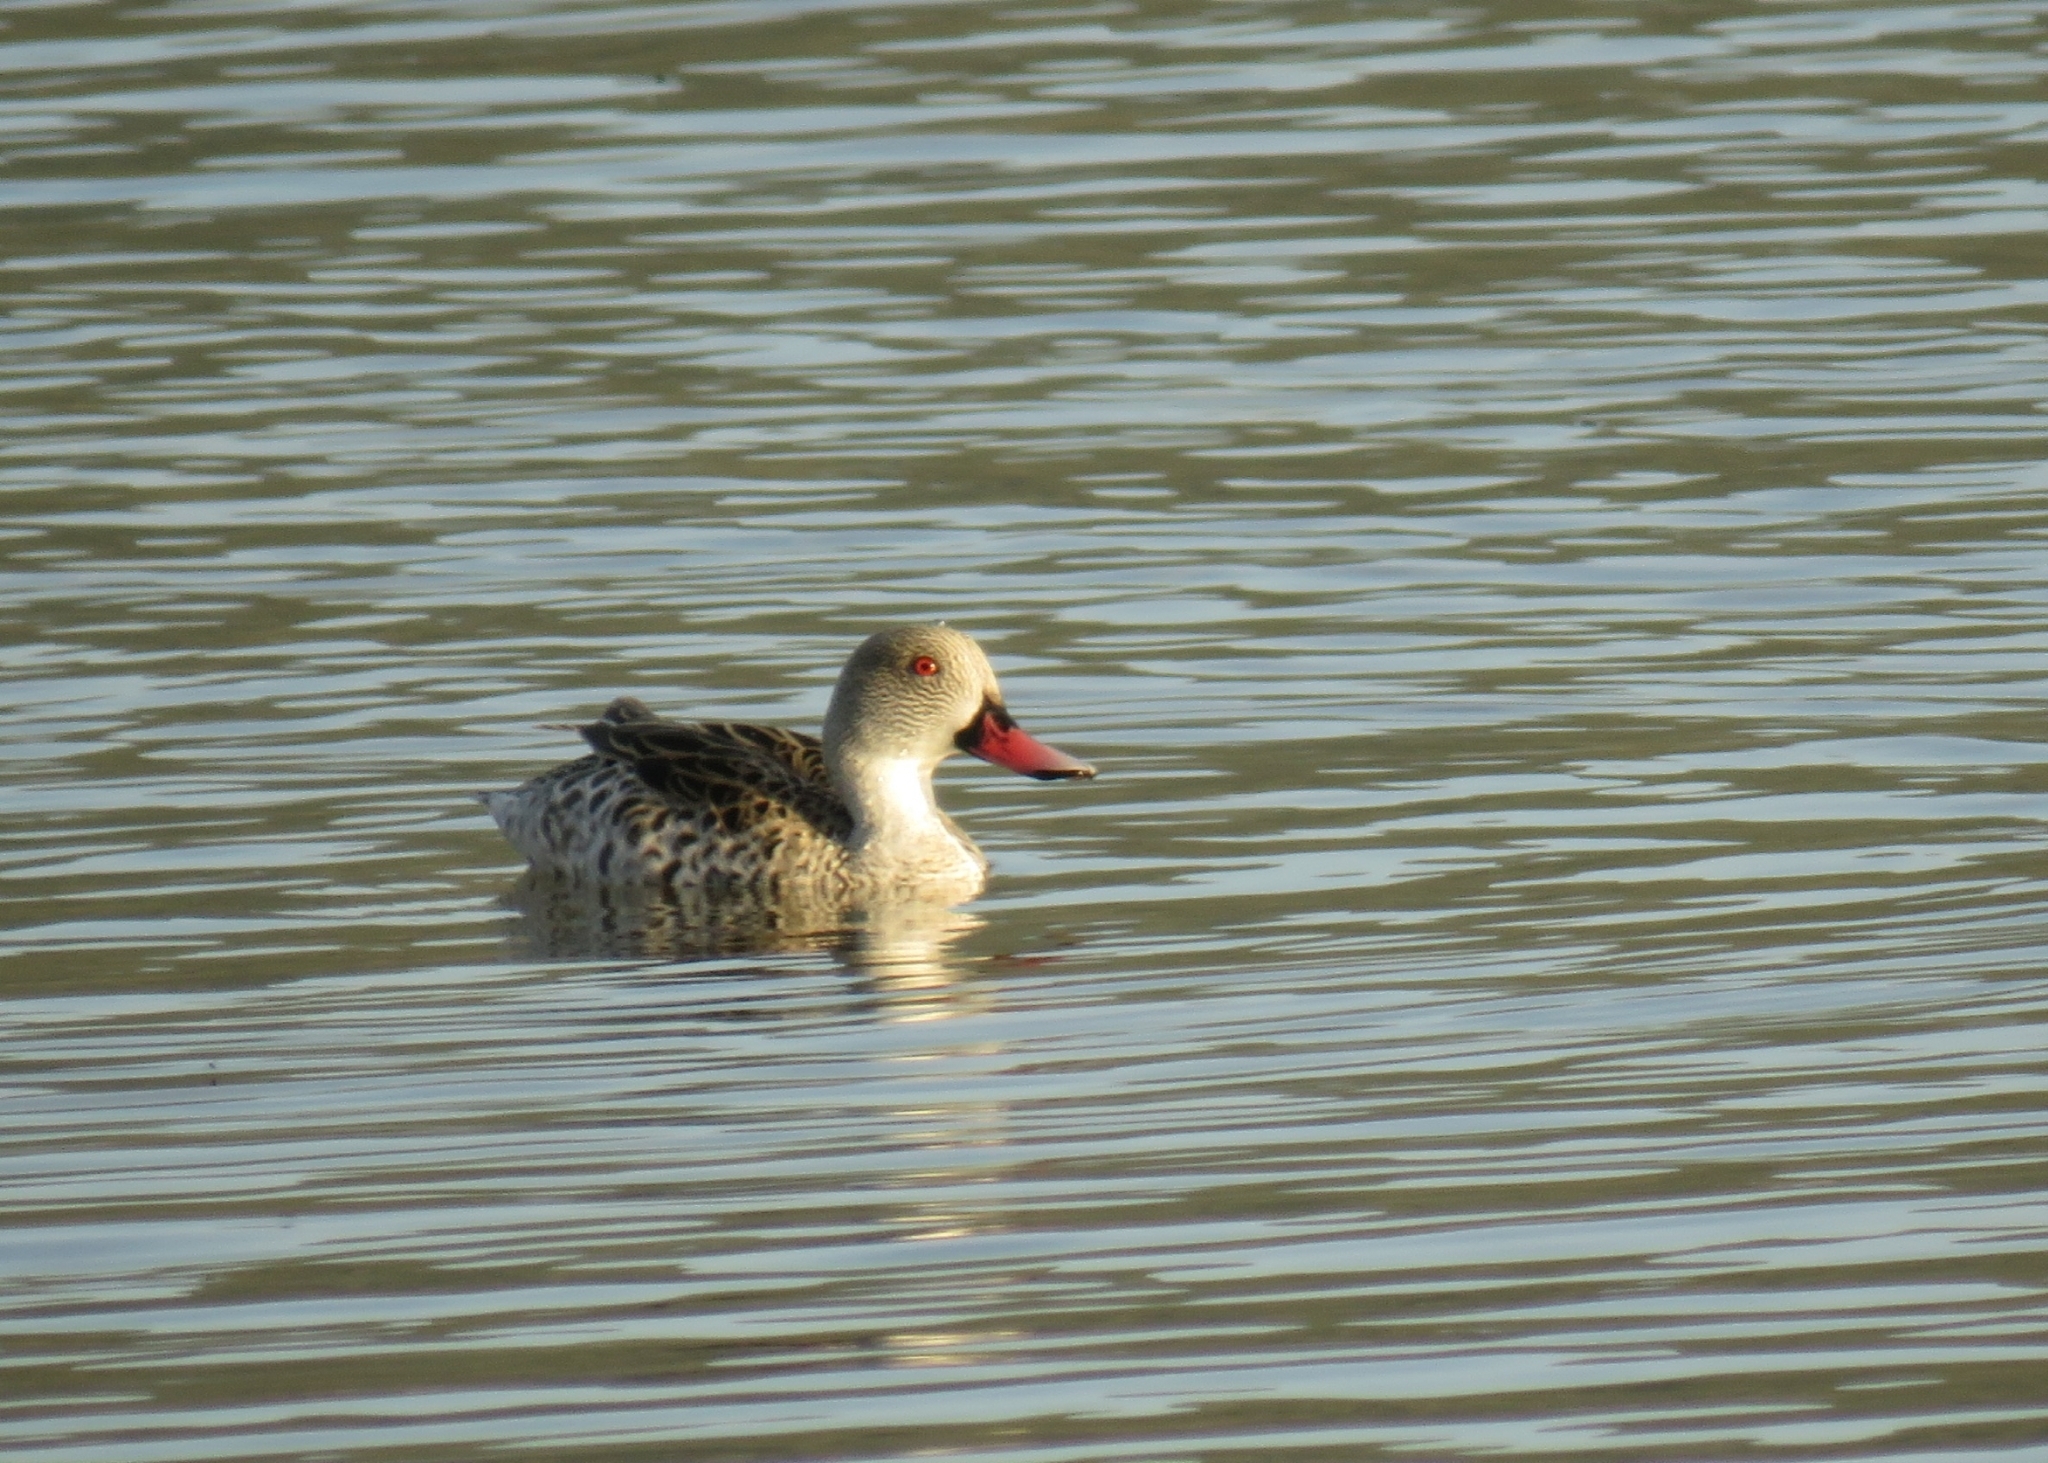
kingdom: Animalia
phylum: Chordata
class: Aves
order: Anseriformes
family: Anatidae
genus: Anas
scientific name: Anas capensis
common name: Cape teal
